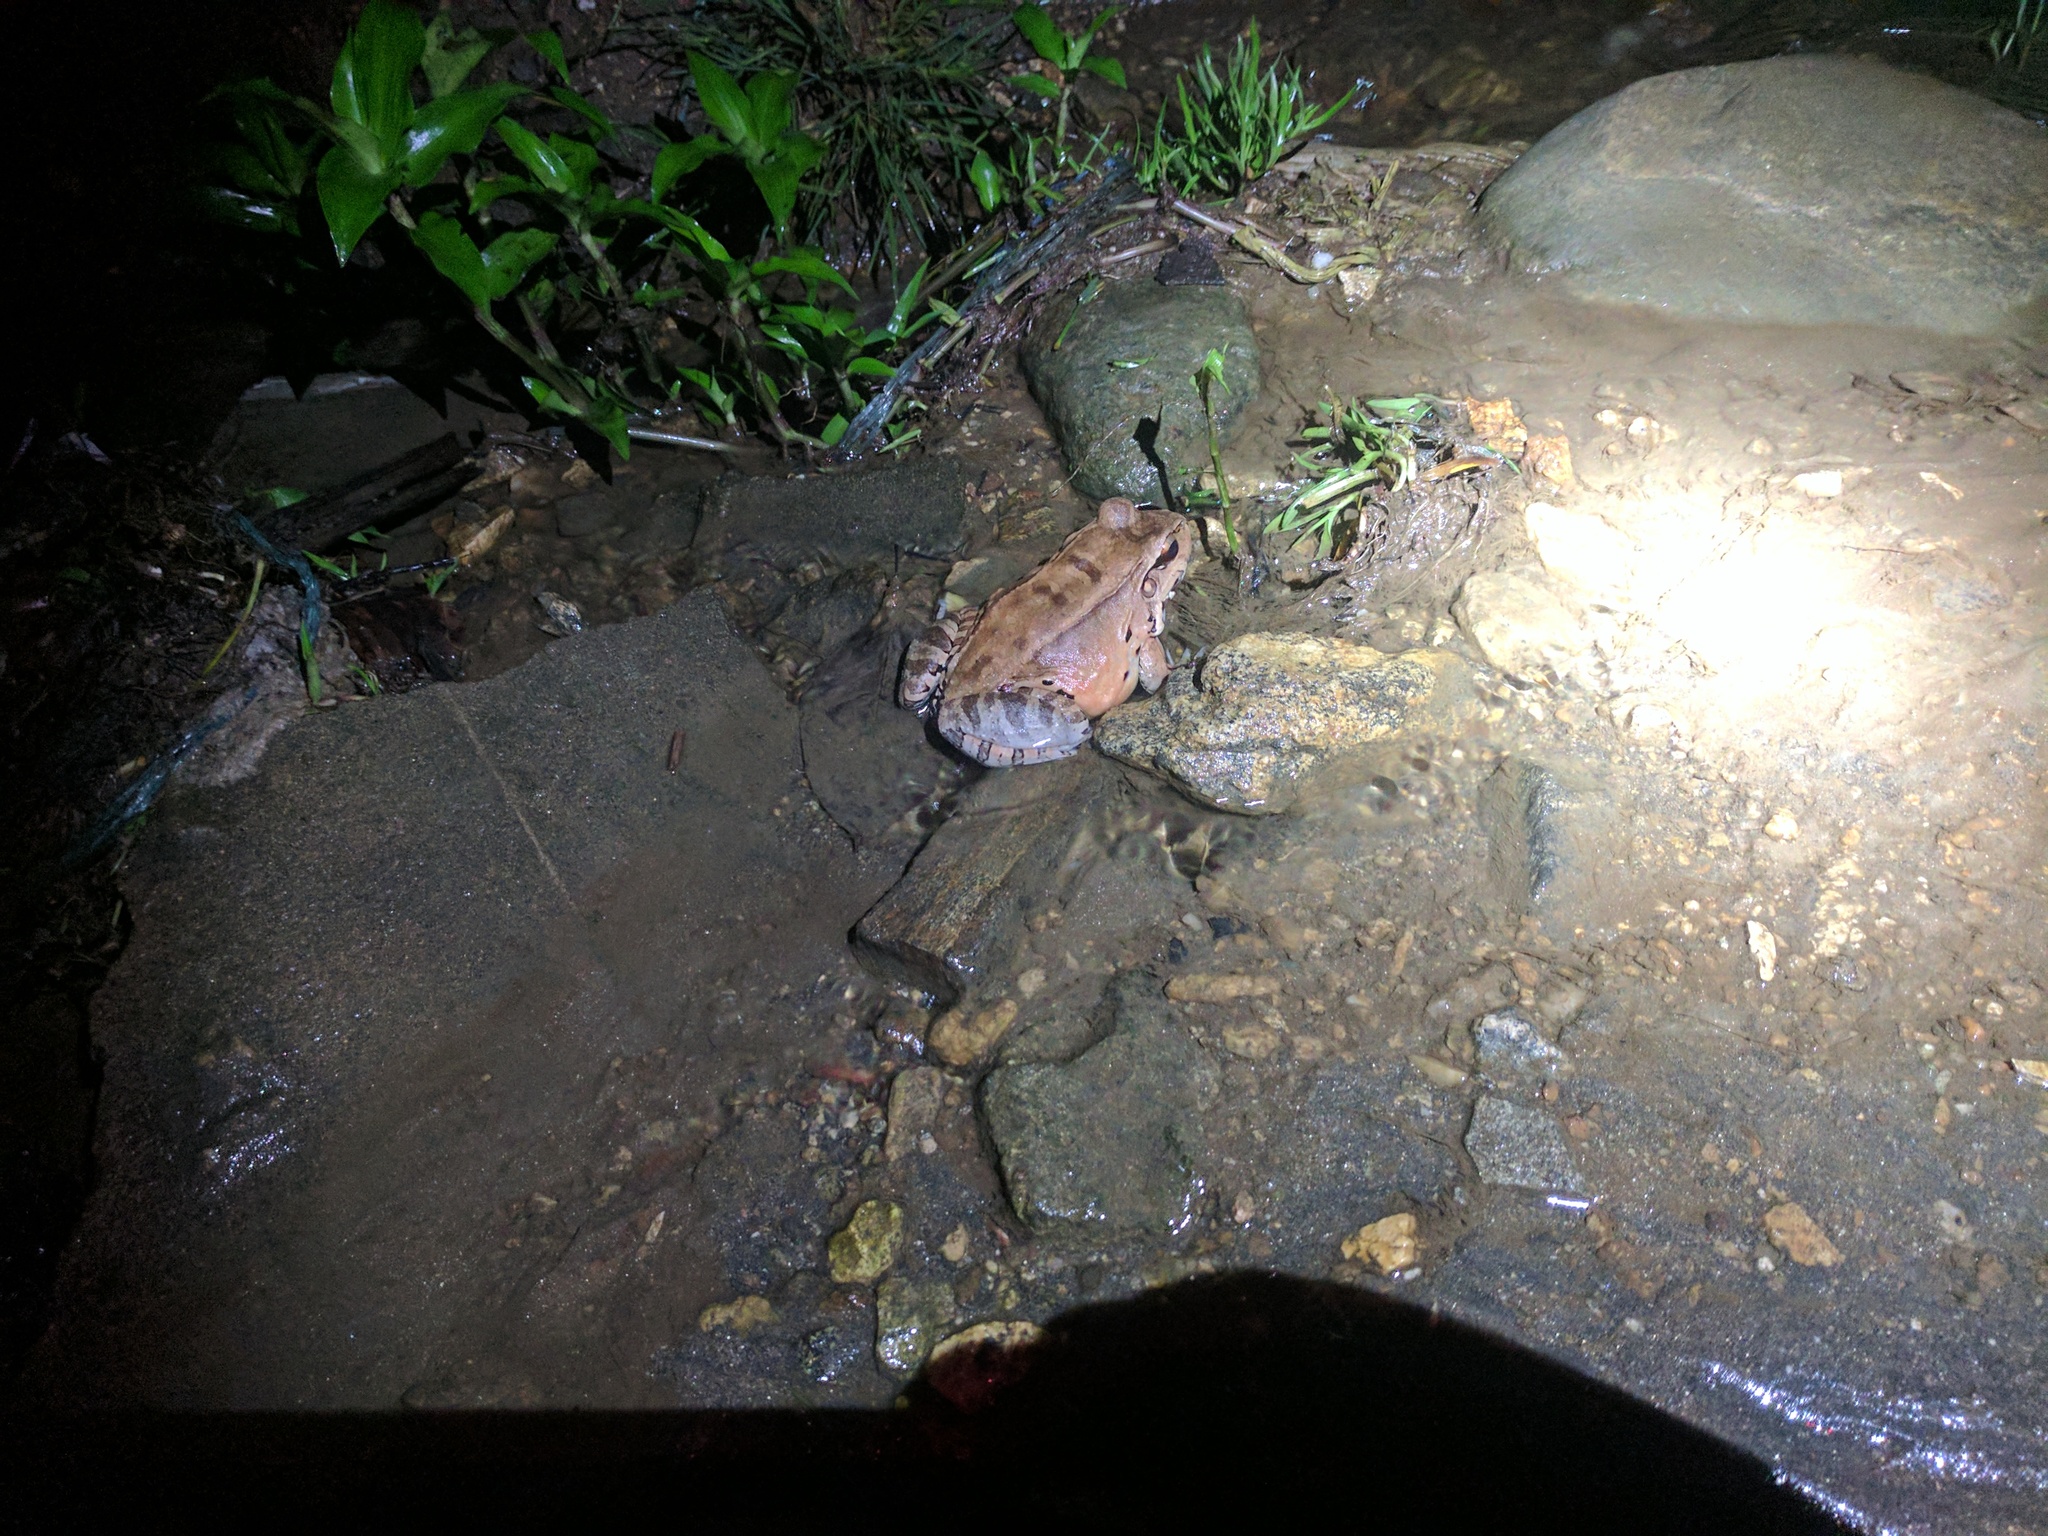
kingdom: Animalia
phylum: Chordata
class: Amphibia
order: Anura
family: Leptodactylidae
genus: Leptodactylus
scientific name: Leptodactylus savagei
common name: Savage's thin-toed frog
